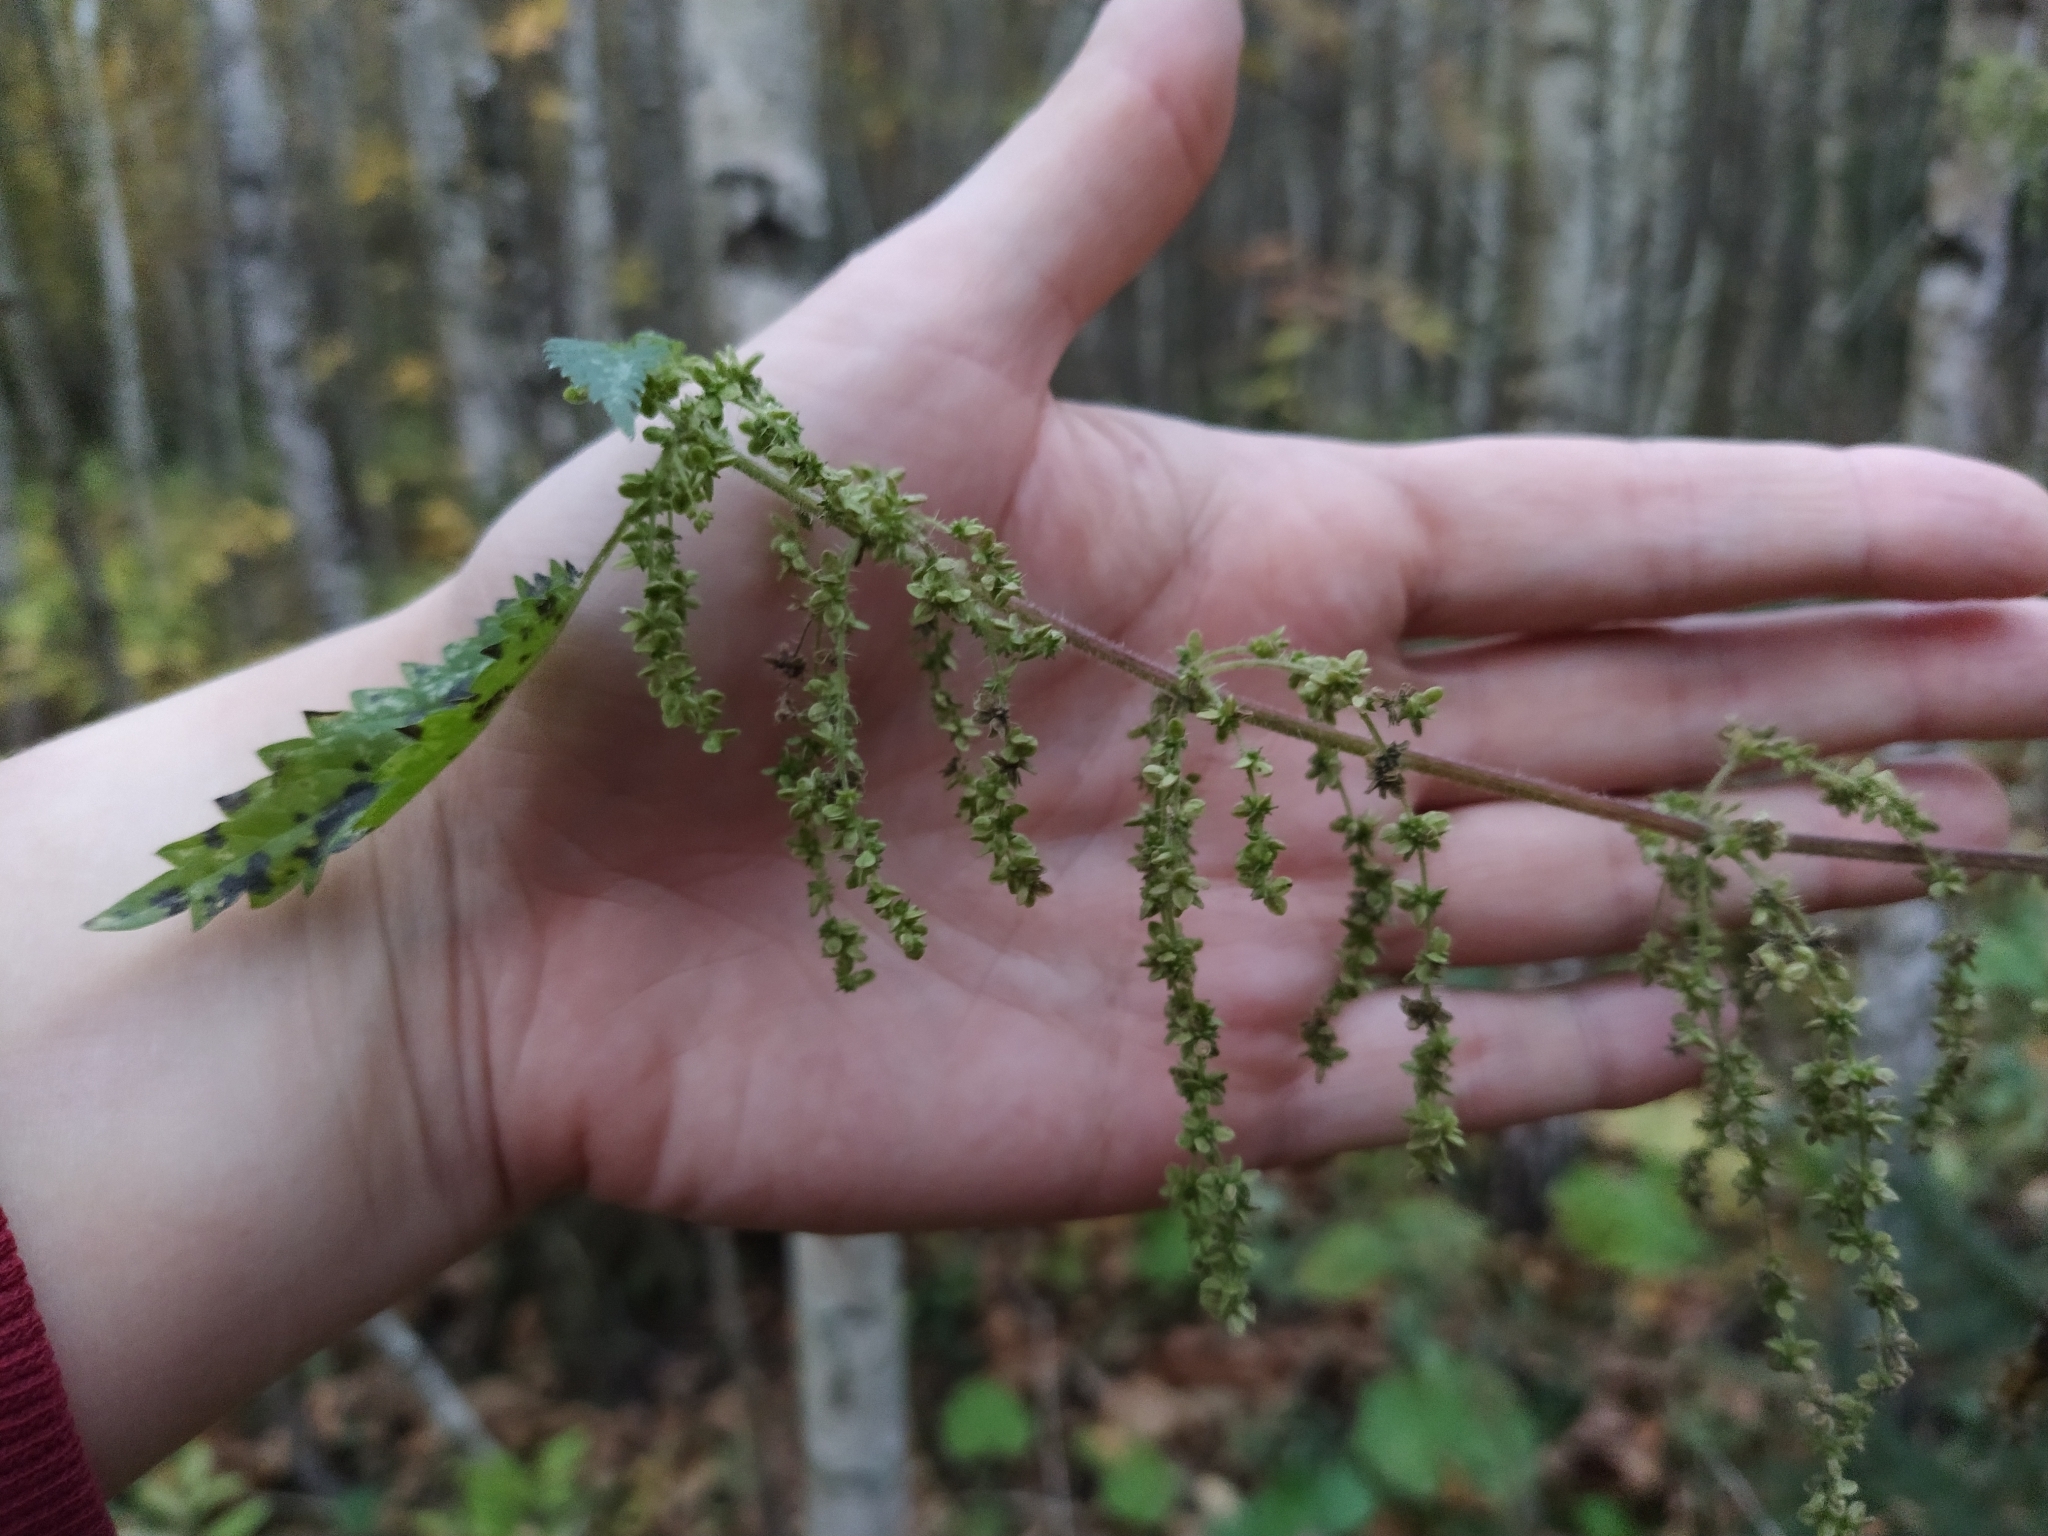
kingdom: Plantae
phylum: Tracheophyta
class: Magnoliopsida
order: Rosales
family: Urticaceae
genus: Urtica
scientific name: Urtica dioica
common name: Common nettle
